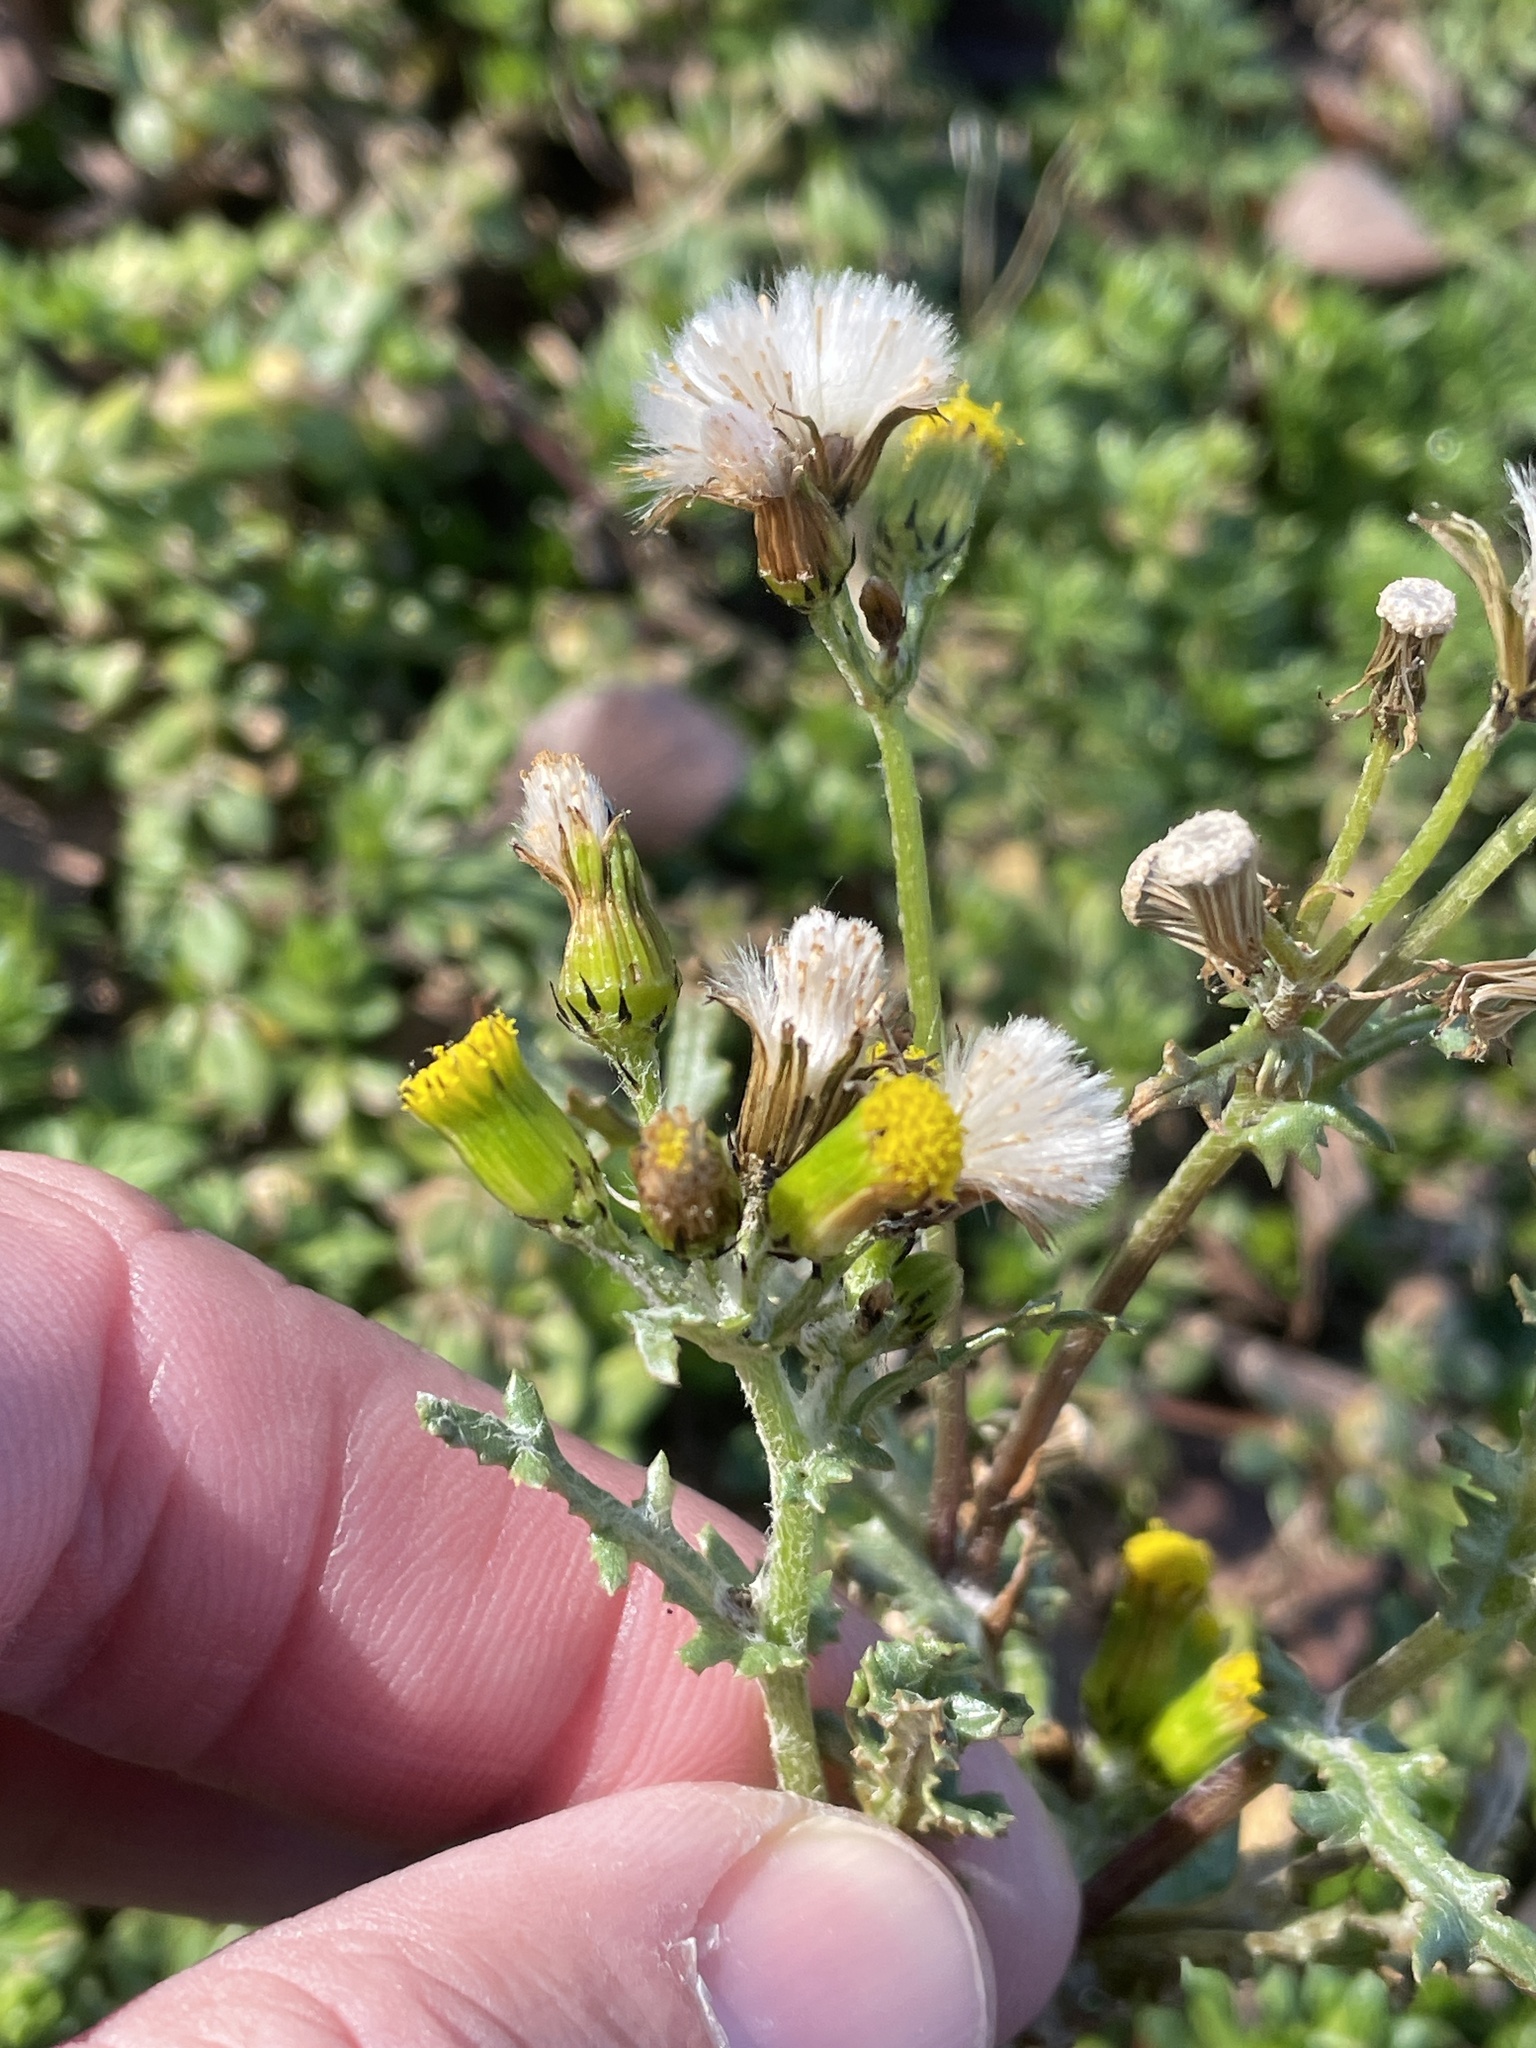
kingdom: Plantae
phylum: Tracheophyta
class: Magnoliopsida
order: Asterales
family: Asteraceae
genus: Senecio
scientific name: Senecio vulgaris
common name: Old-man-in-the-spring
